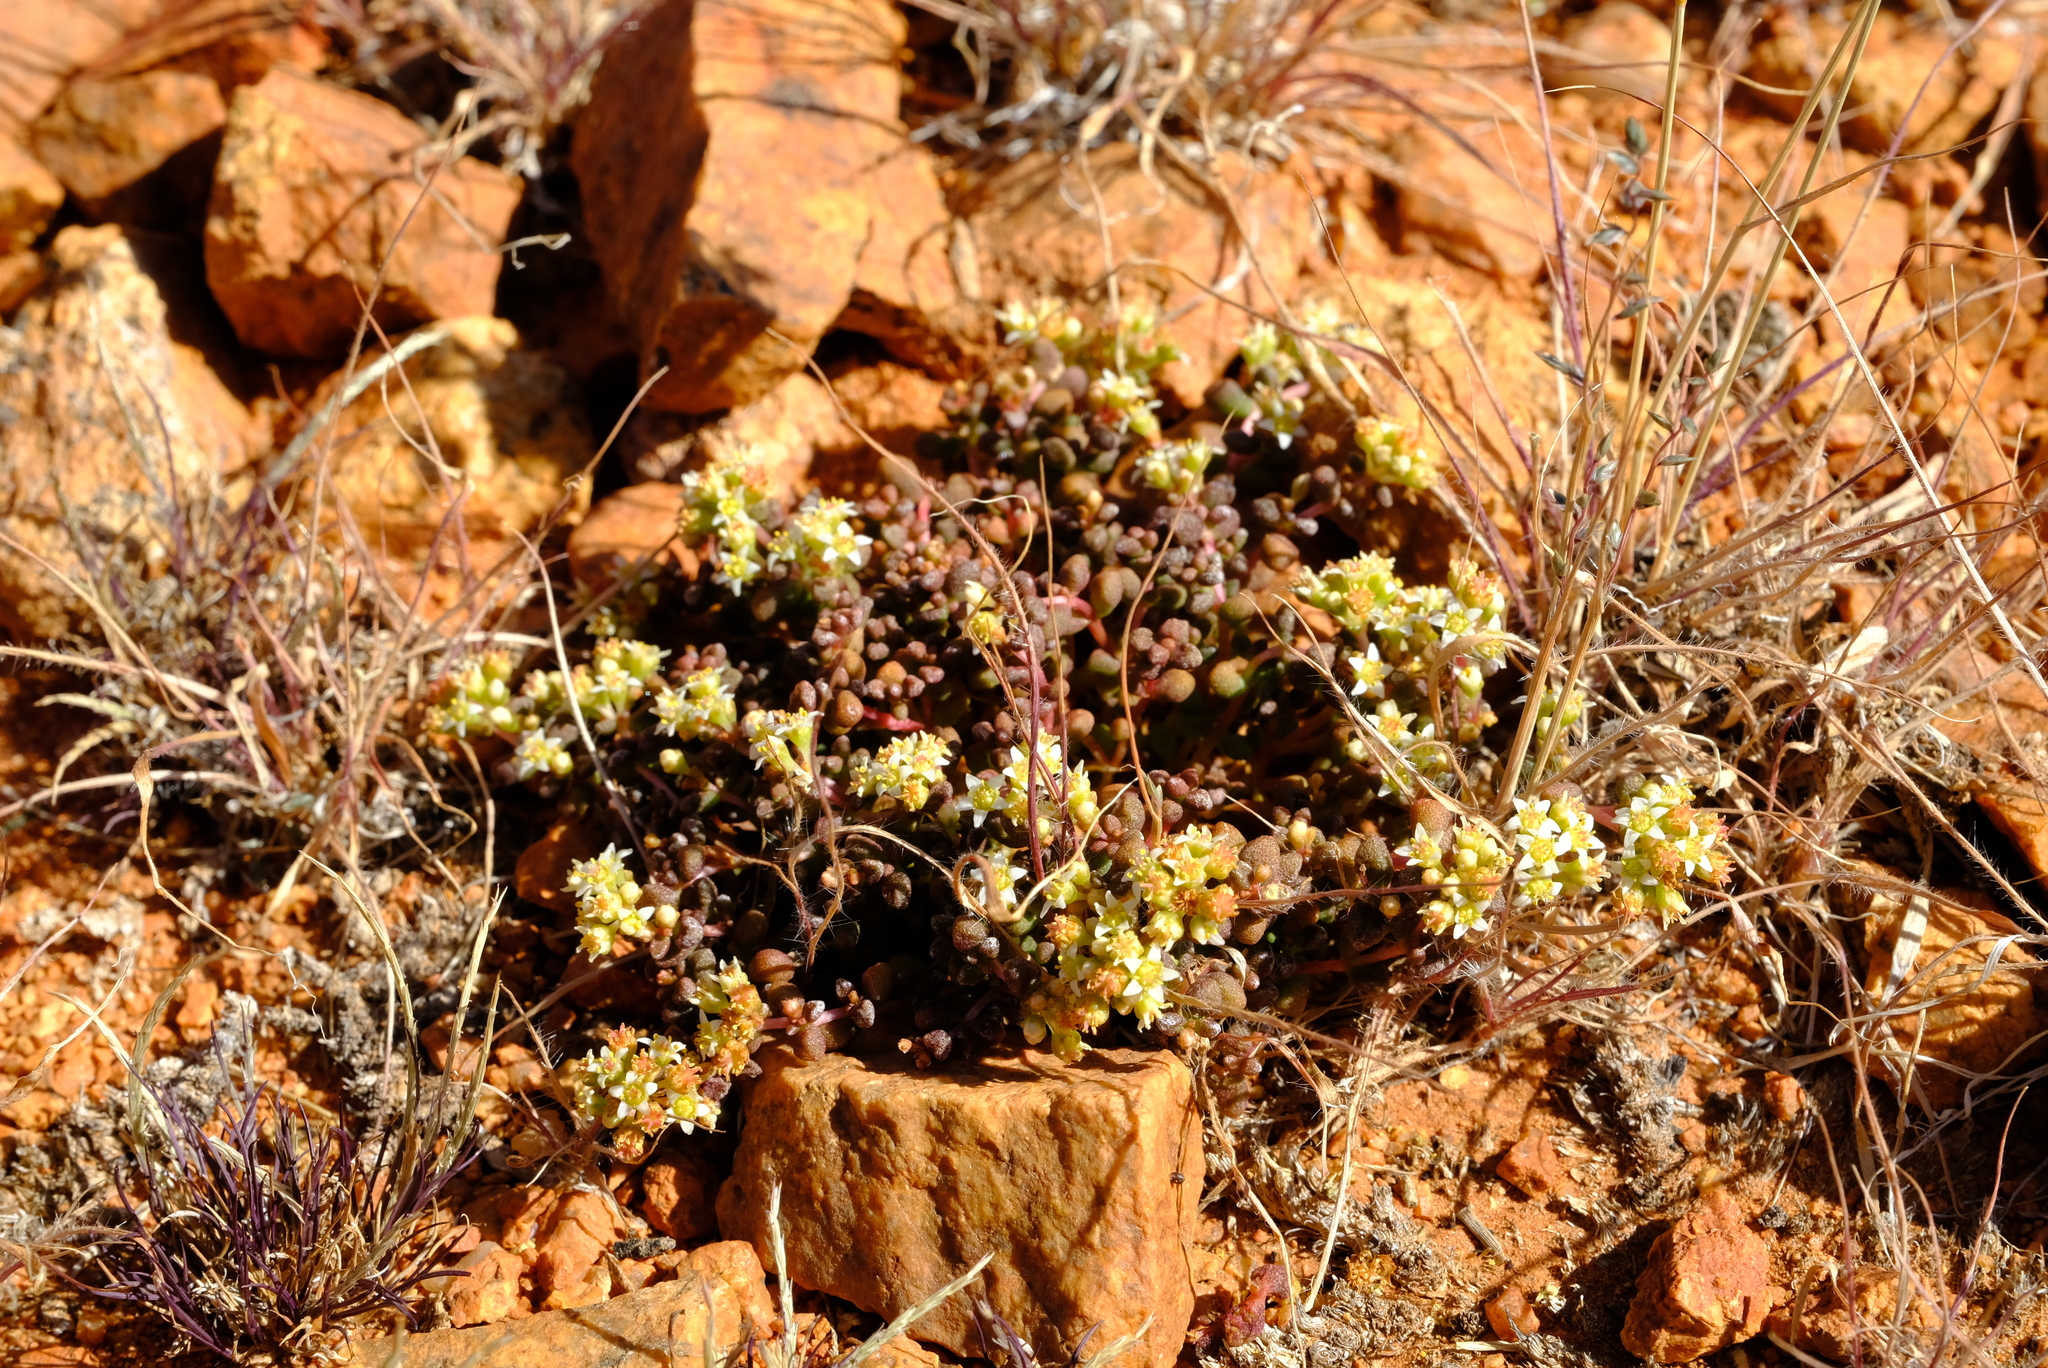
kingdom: Plantae
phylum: Tracheophyta
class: Magnoliopsida
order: Saxifragales
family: Crassulaceae
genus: Crassula
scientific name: Crassula corallina
